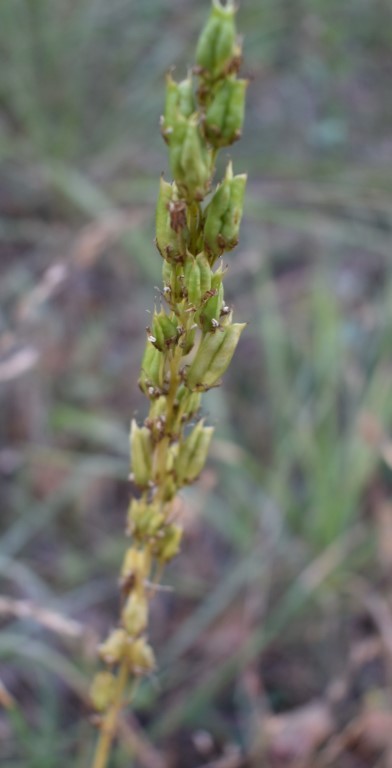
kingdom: Plantae
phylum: Tracheophyta
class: Liliopsida
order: Liliales
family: Melanthiaceae
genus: Toxicoscordion
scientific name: Toxicoscordion venenosum
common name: Meadow death camas
